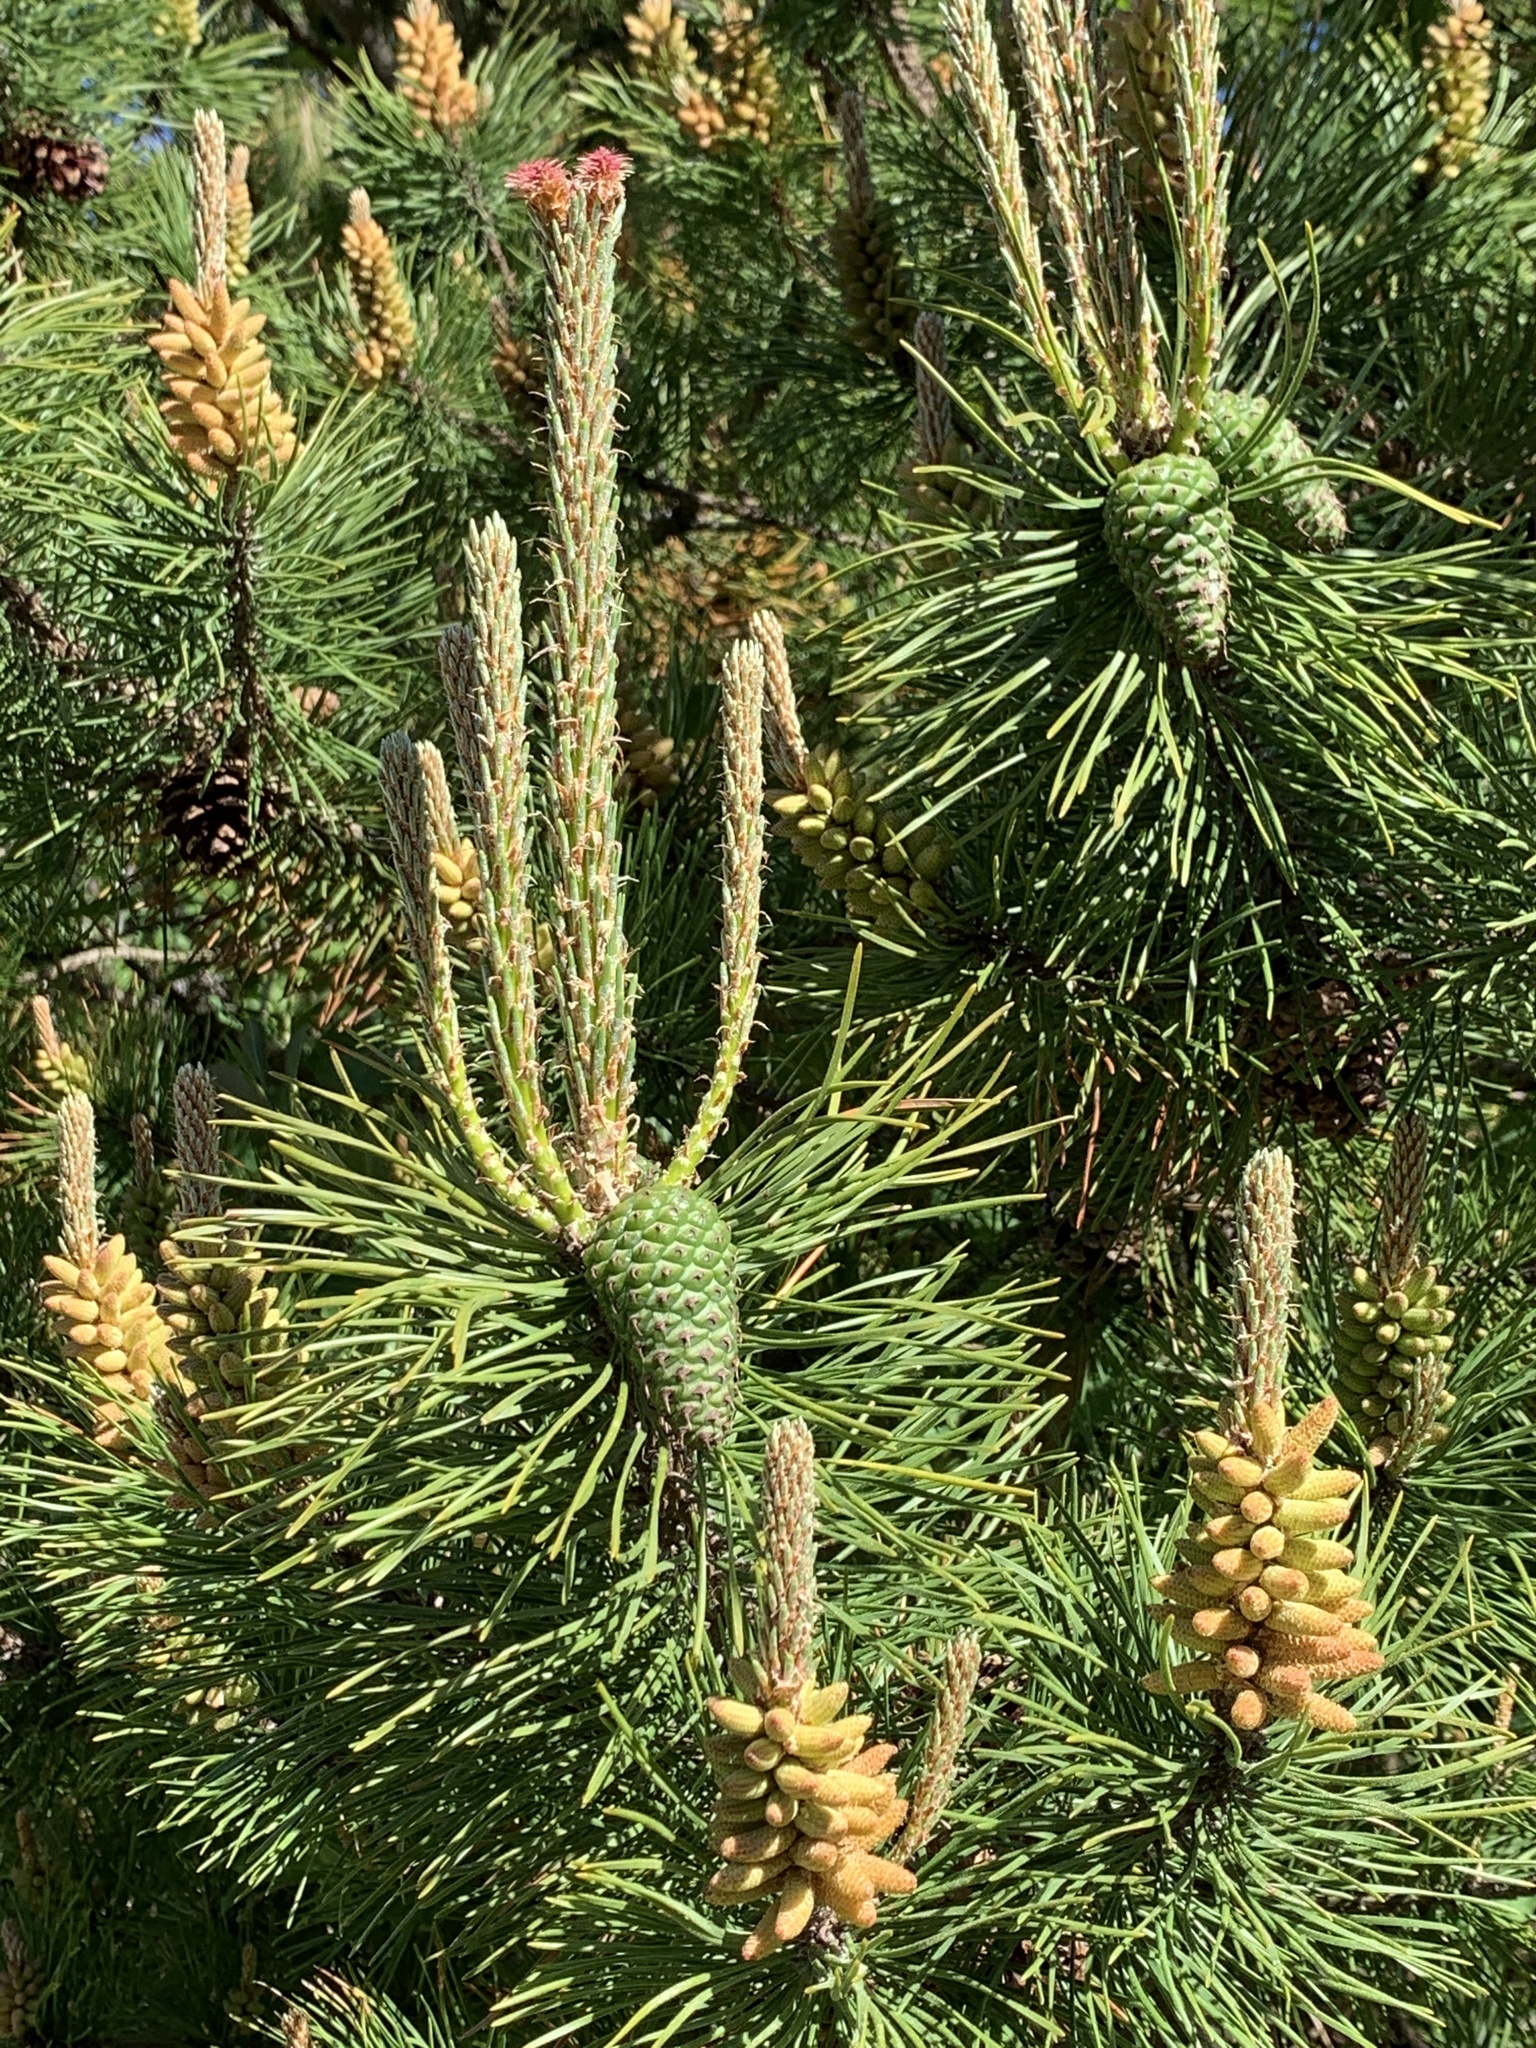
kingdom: Plantae
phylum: Tracheophyta
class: Pinopsida
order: Pinales
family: Pinaceae
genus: Pinus
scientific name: Pinus sylvestris
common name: Scots pine
